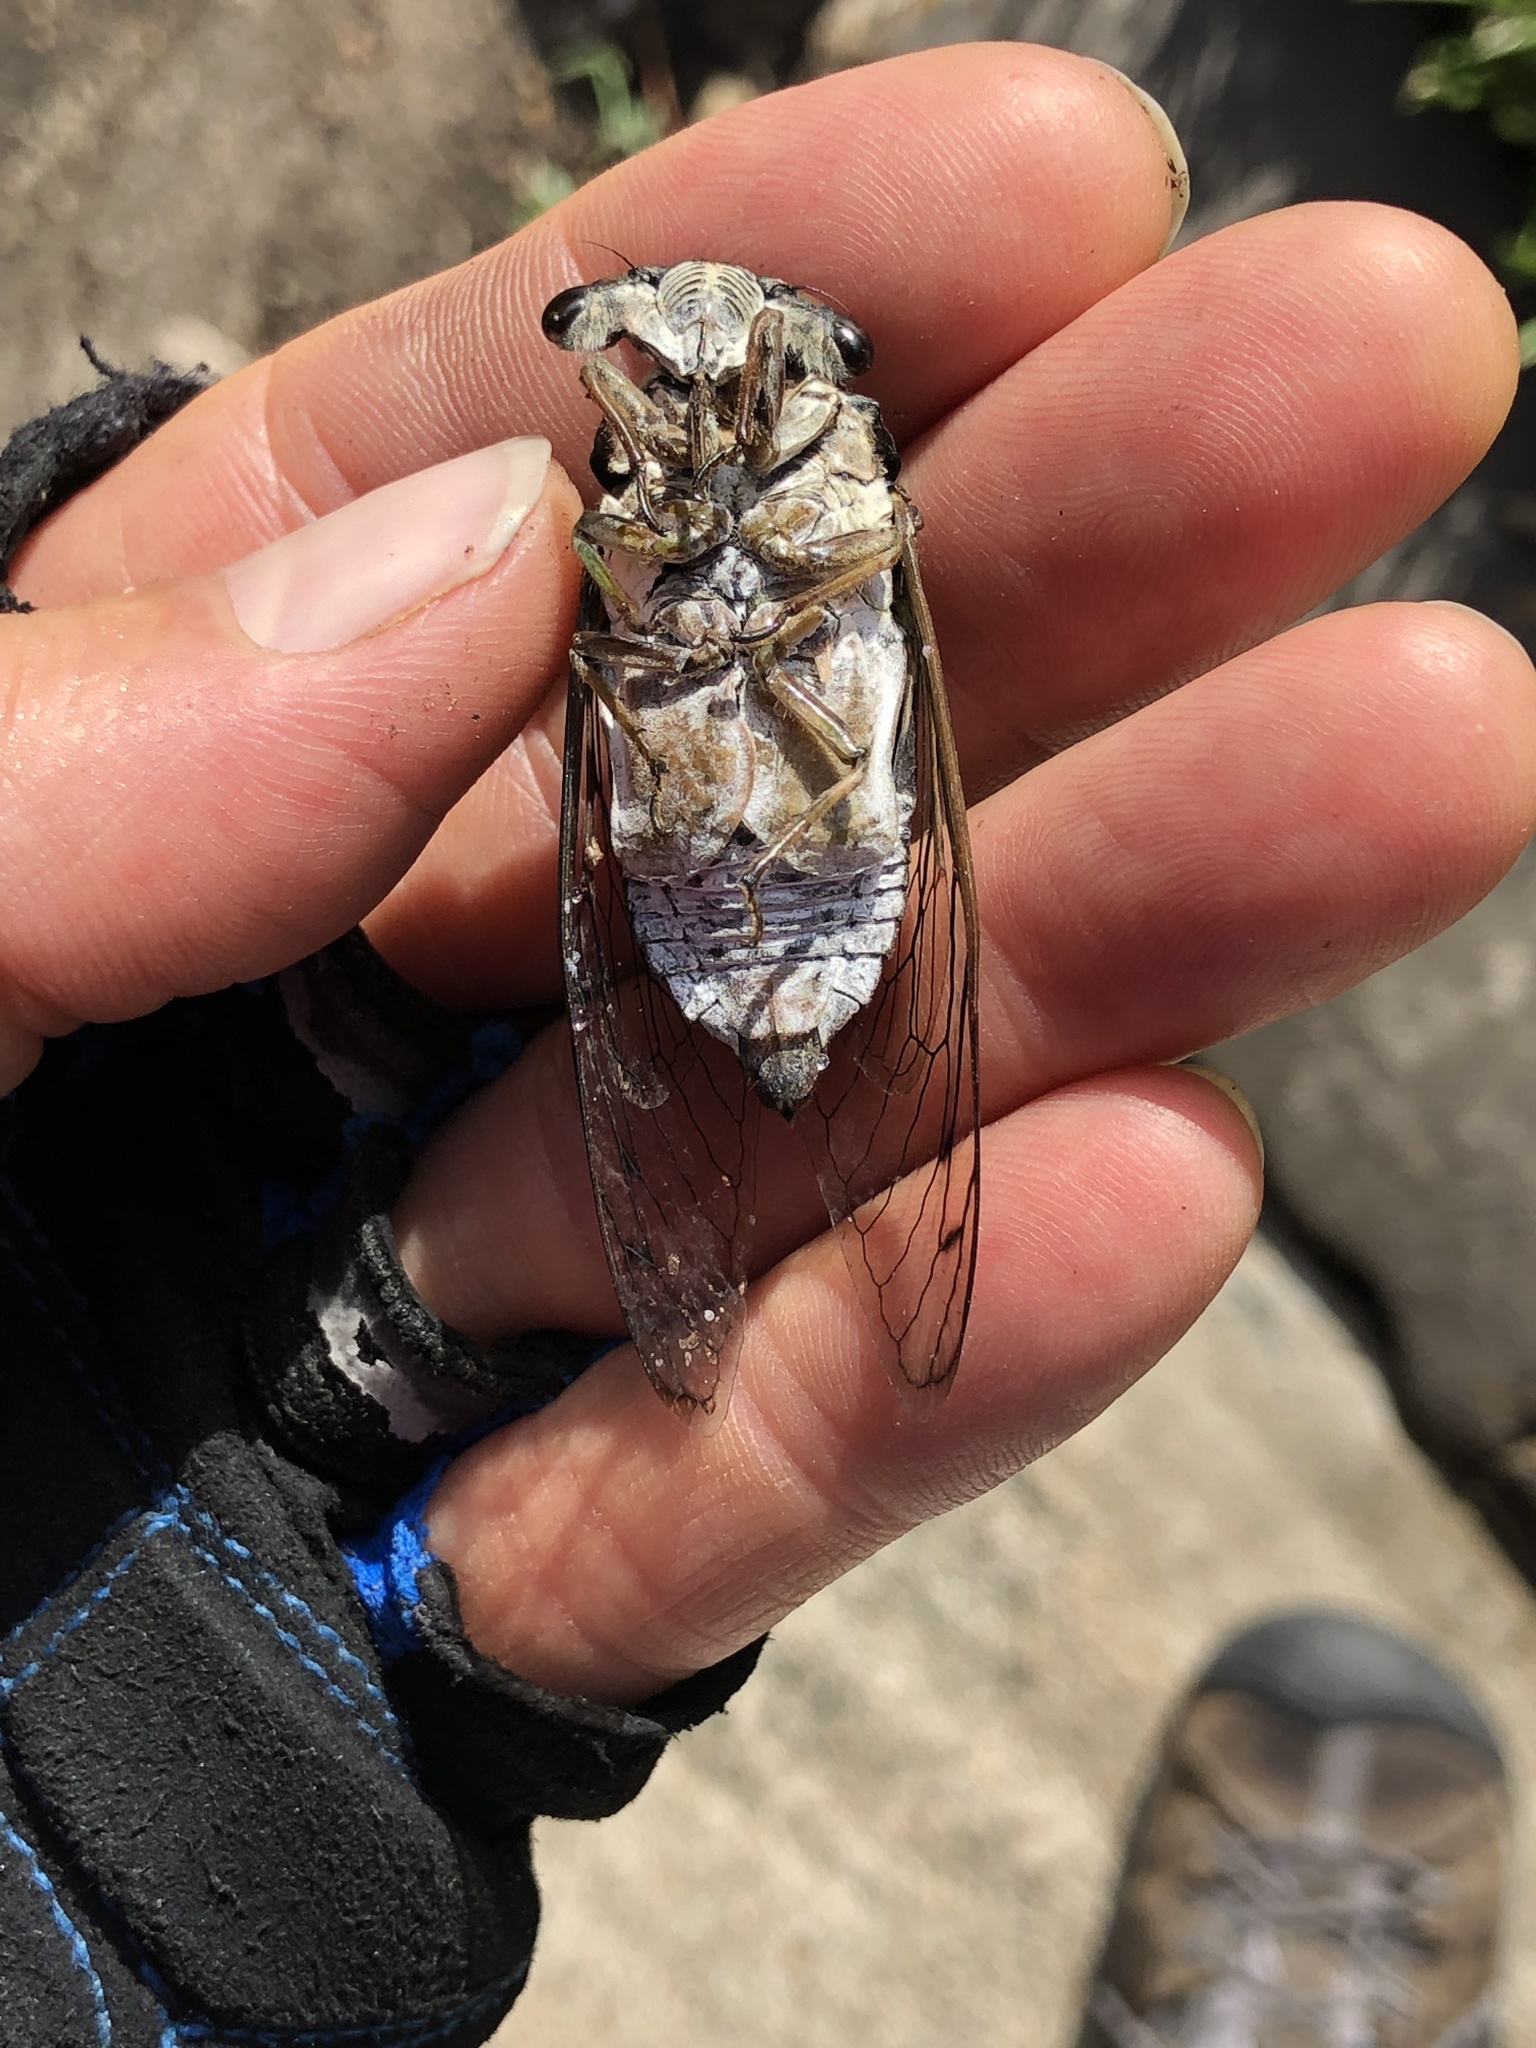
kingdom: Animalia
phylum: Arthropoda
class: Insecta
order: Hemiptera
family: Cicadidae
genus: Neotibicen
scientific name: Neotibicen tibicen
